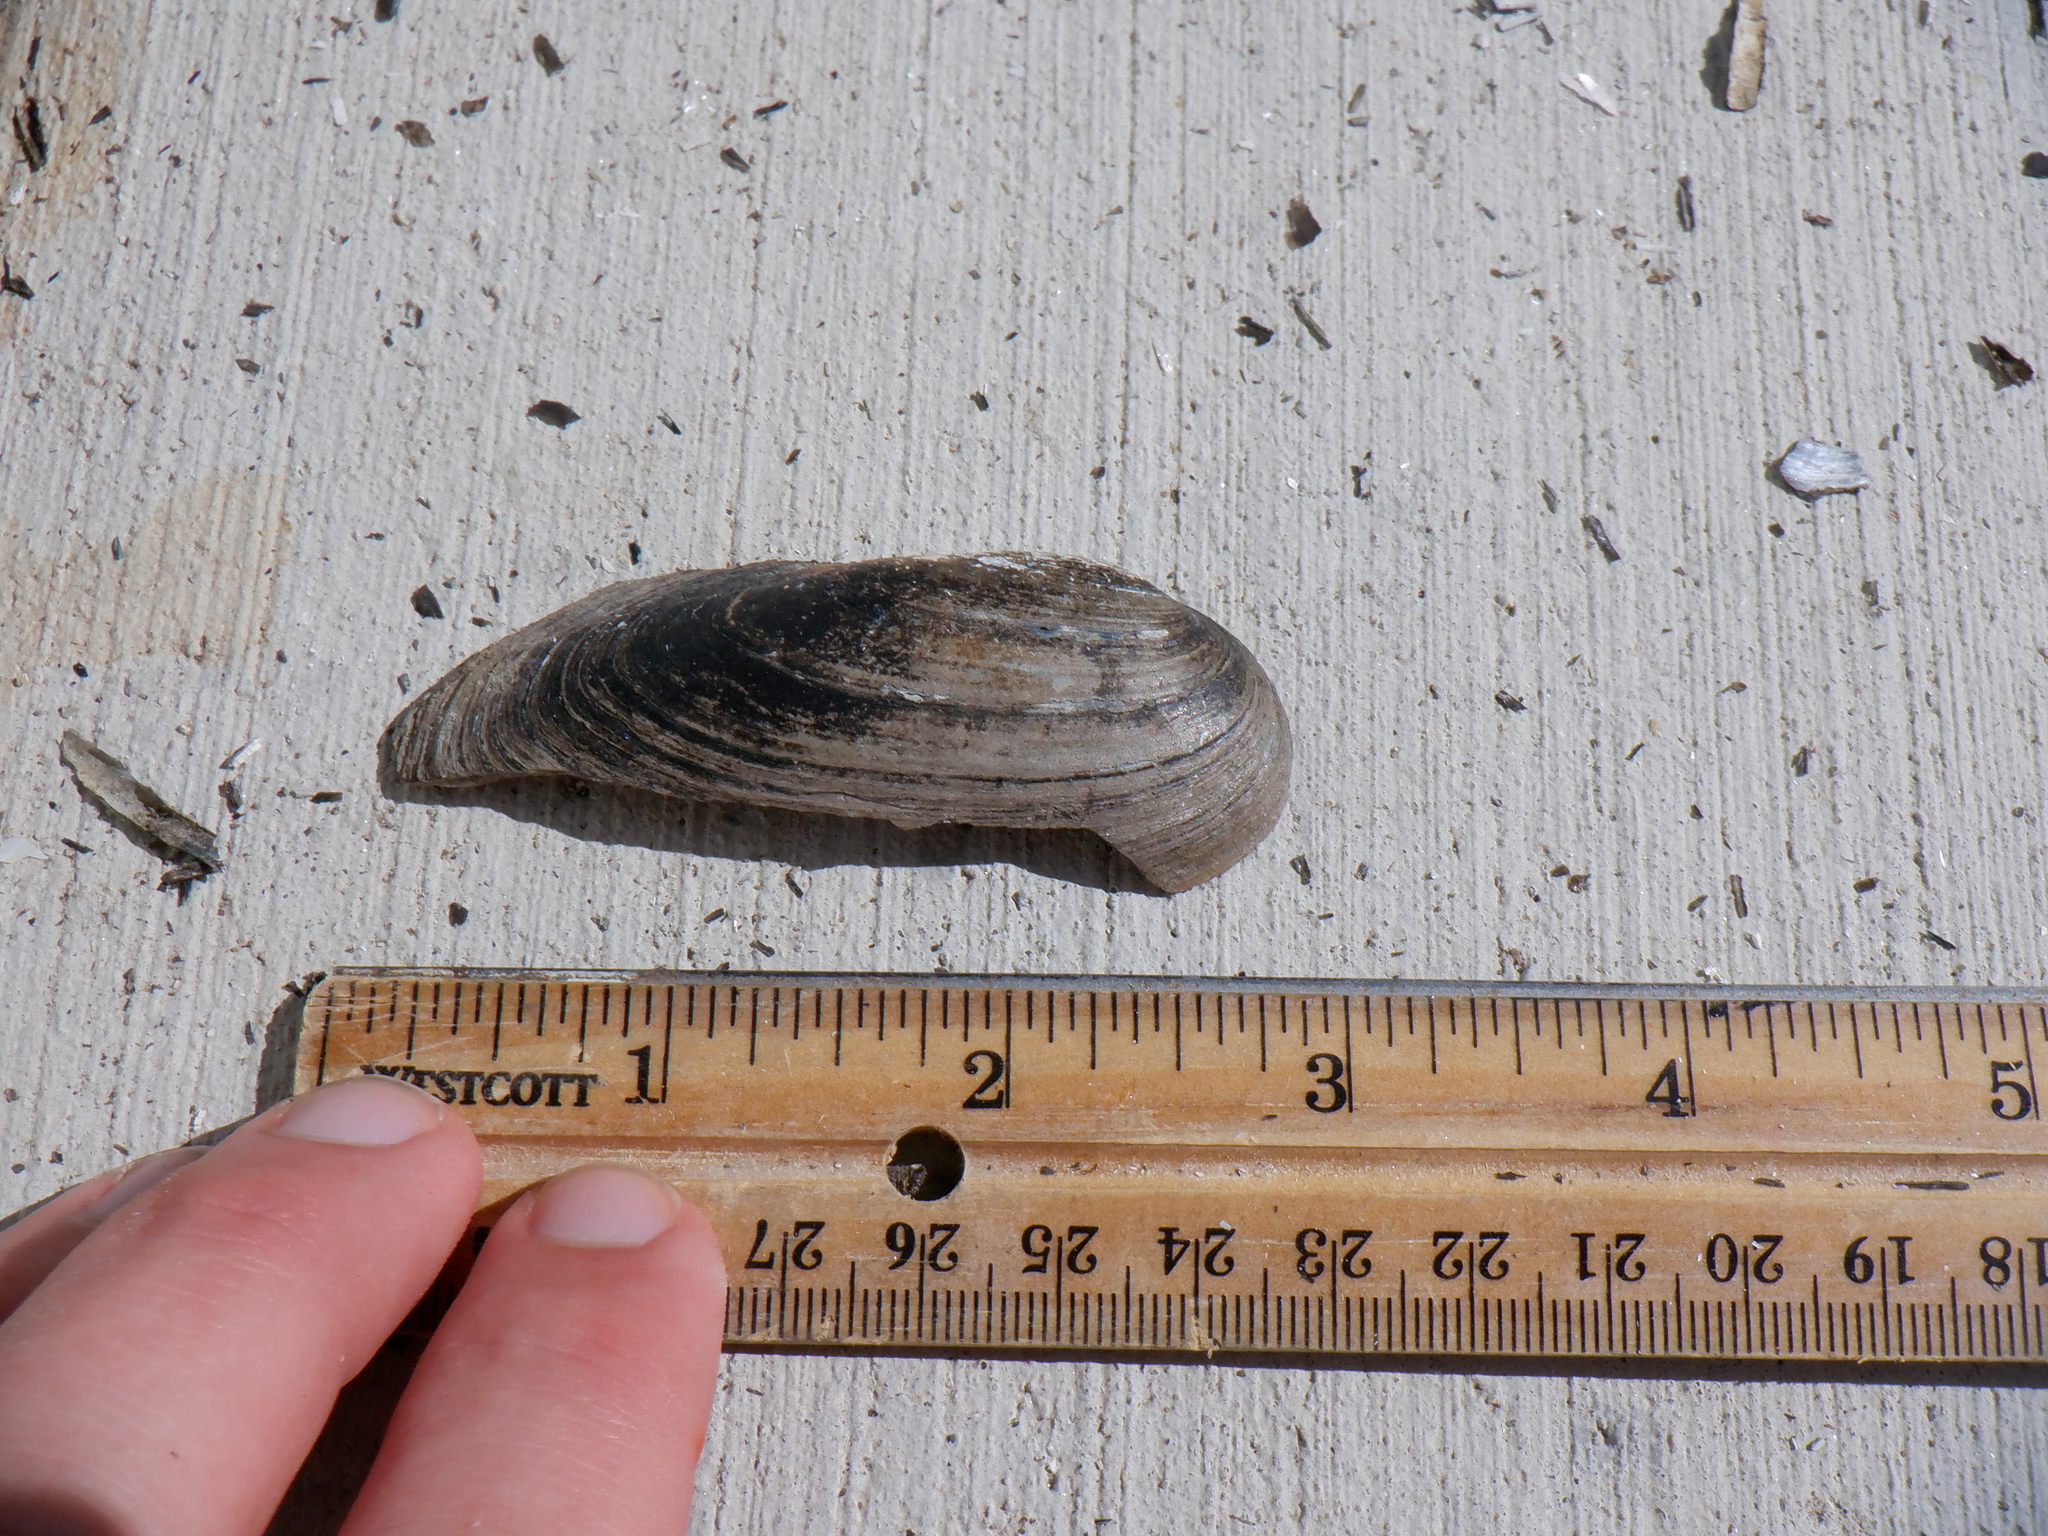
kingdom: Animalia
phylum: Mollusca
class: Bivalvia
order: Unionida
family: Unionidae
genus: Eurynia
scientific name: Eurynia dilatata
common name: Spike
